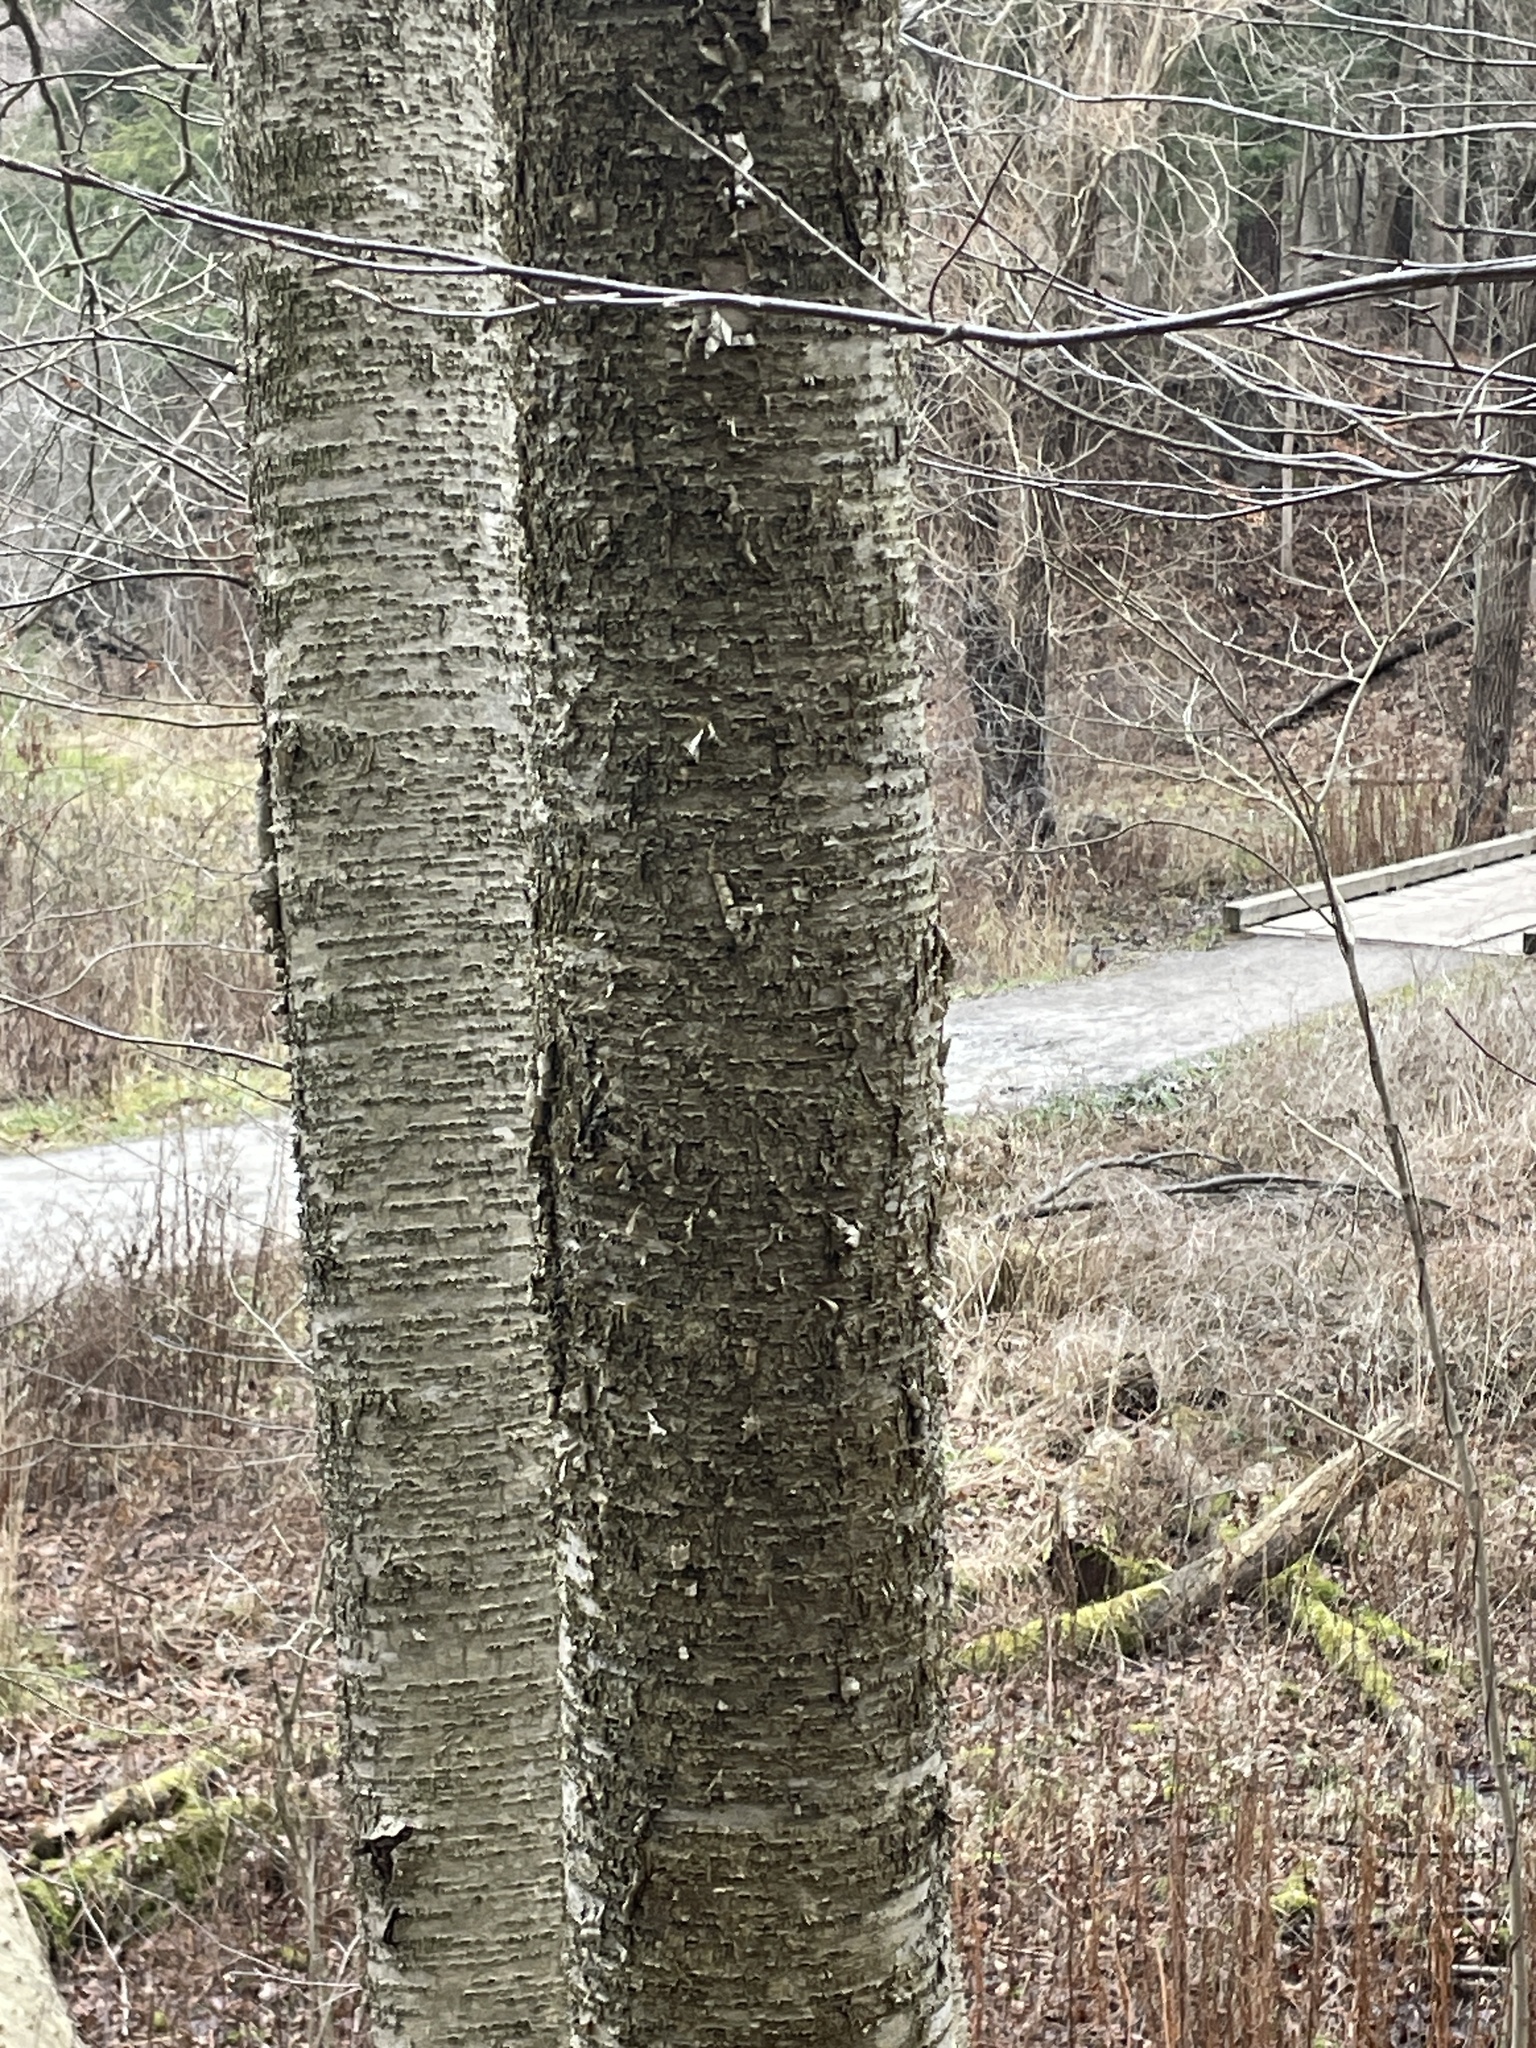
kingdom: Plantae
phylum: Tracheophyta
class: Magnoliopsida
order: Fagales
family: Betulaceae
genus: Betula
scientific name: Betula alleghaniensis
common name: Yellow birch
